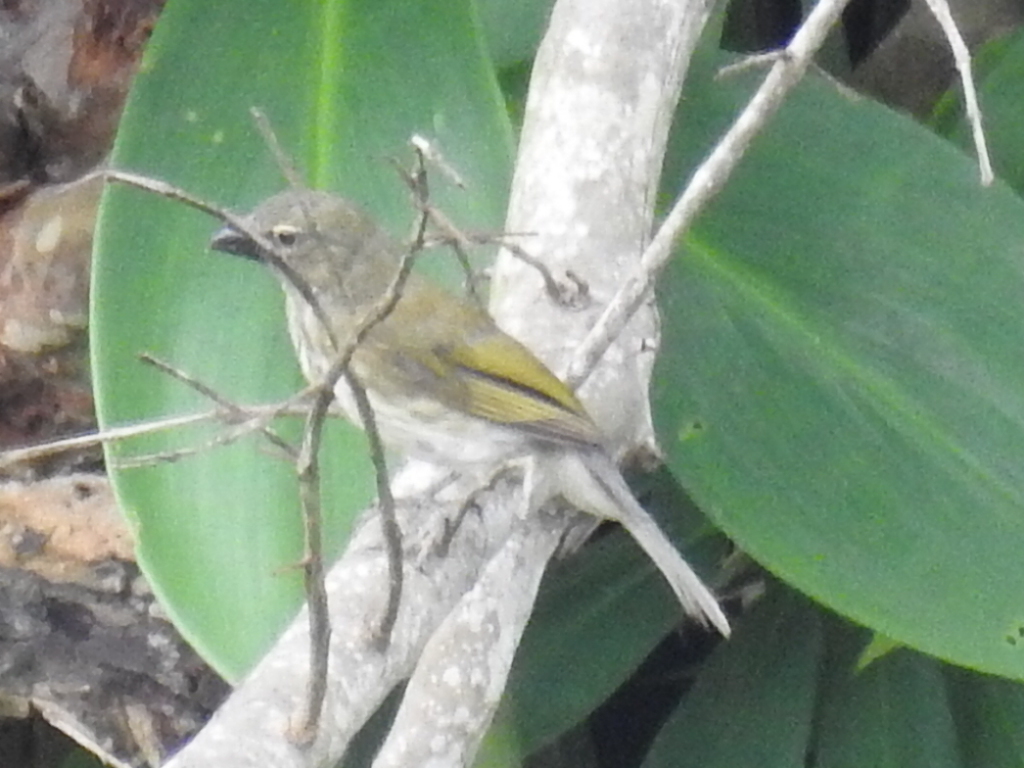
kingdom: Animalia
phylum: Chordata
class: Aves
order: Passeriformes
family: Thraupidae
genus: Saltator
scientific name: Saltator striatipectus
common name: Streaked saltator
